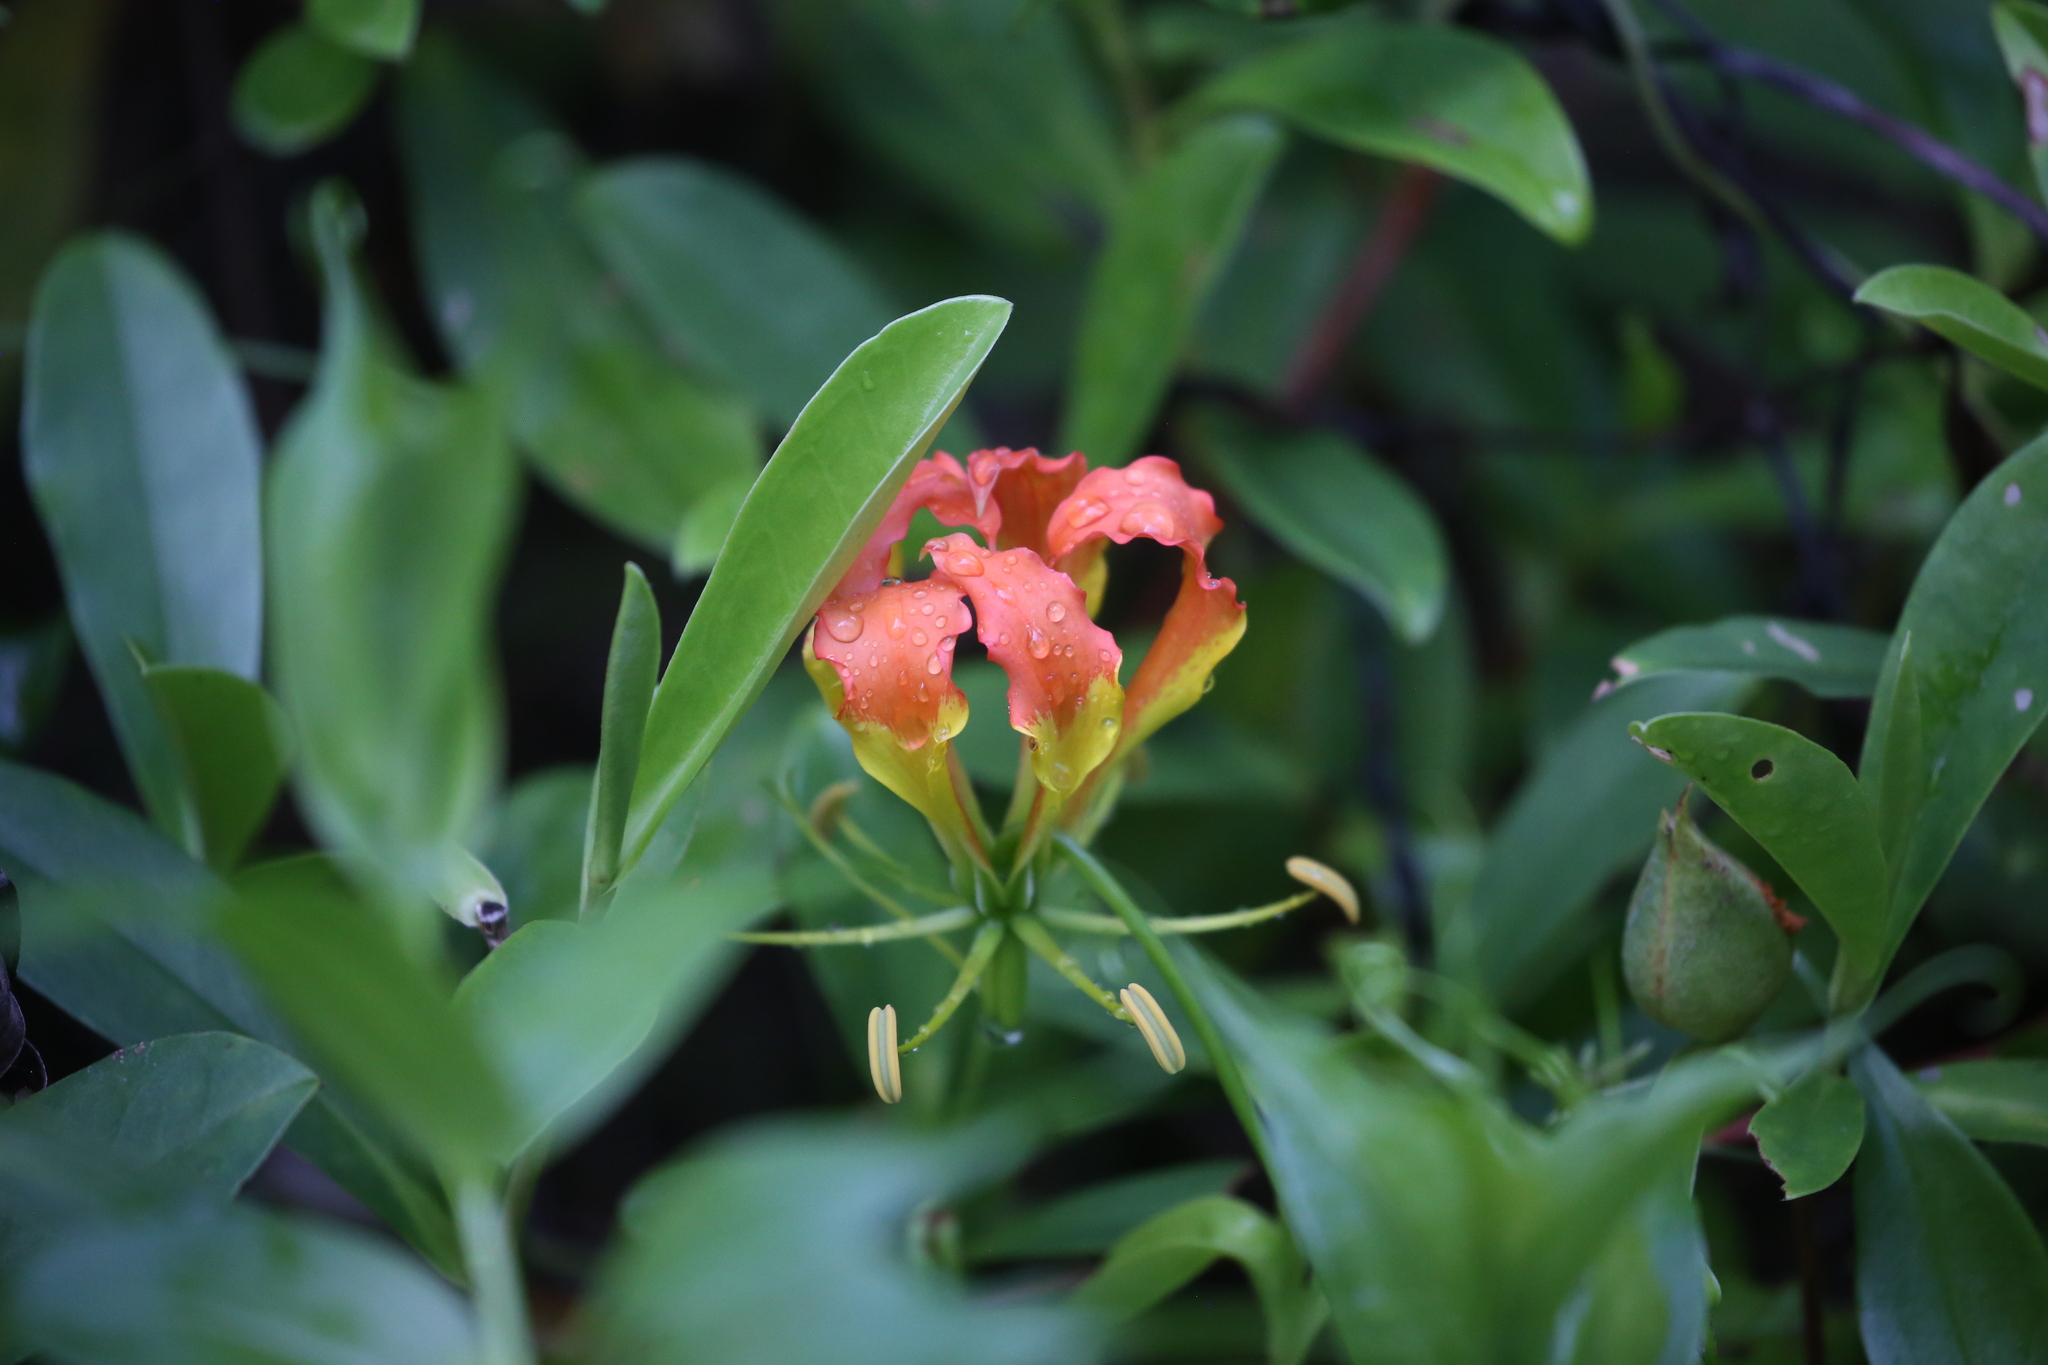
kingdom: Plantae
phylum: Tracheophyta
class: Liliopsida
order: Liliales
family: Colchicaceae
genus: Gloriosa
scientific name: Gloriosa superba
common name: Flame lily
